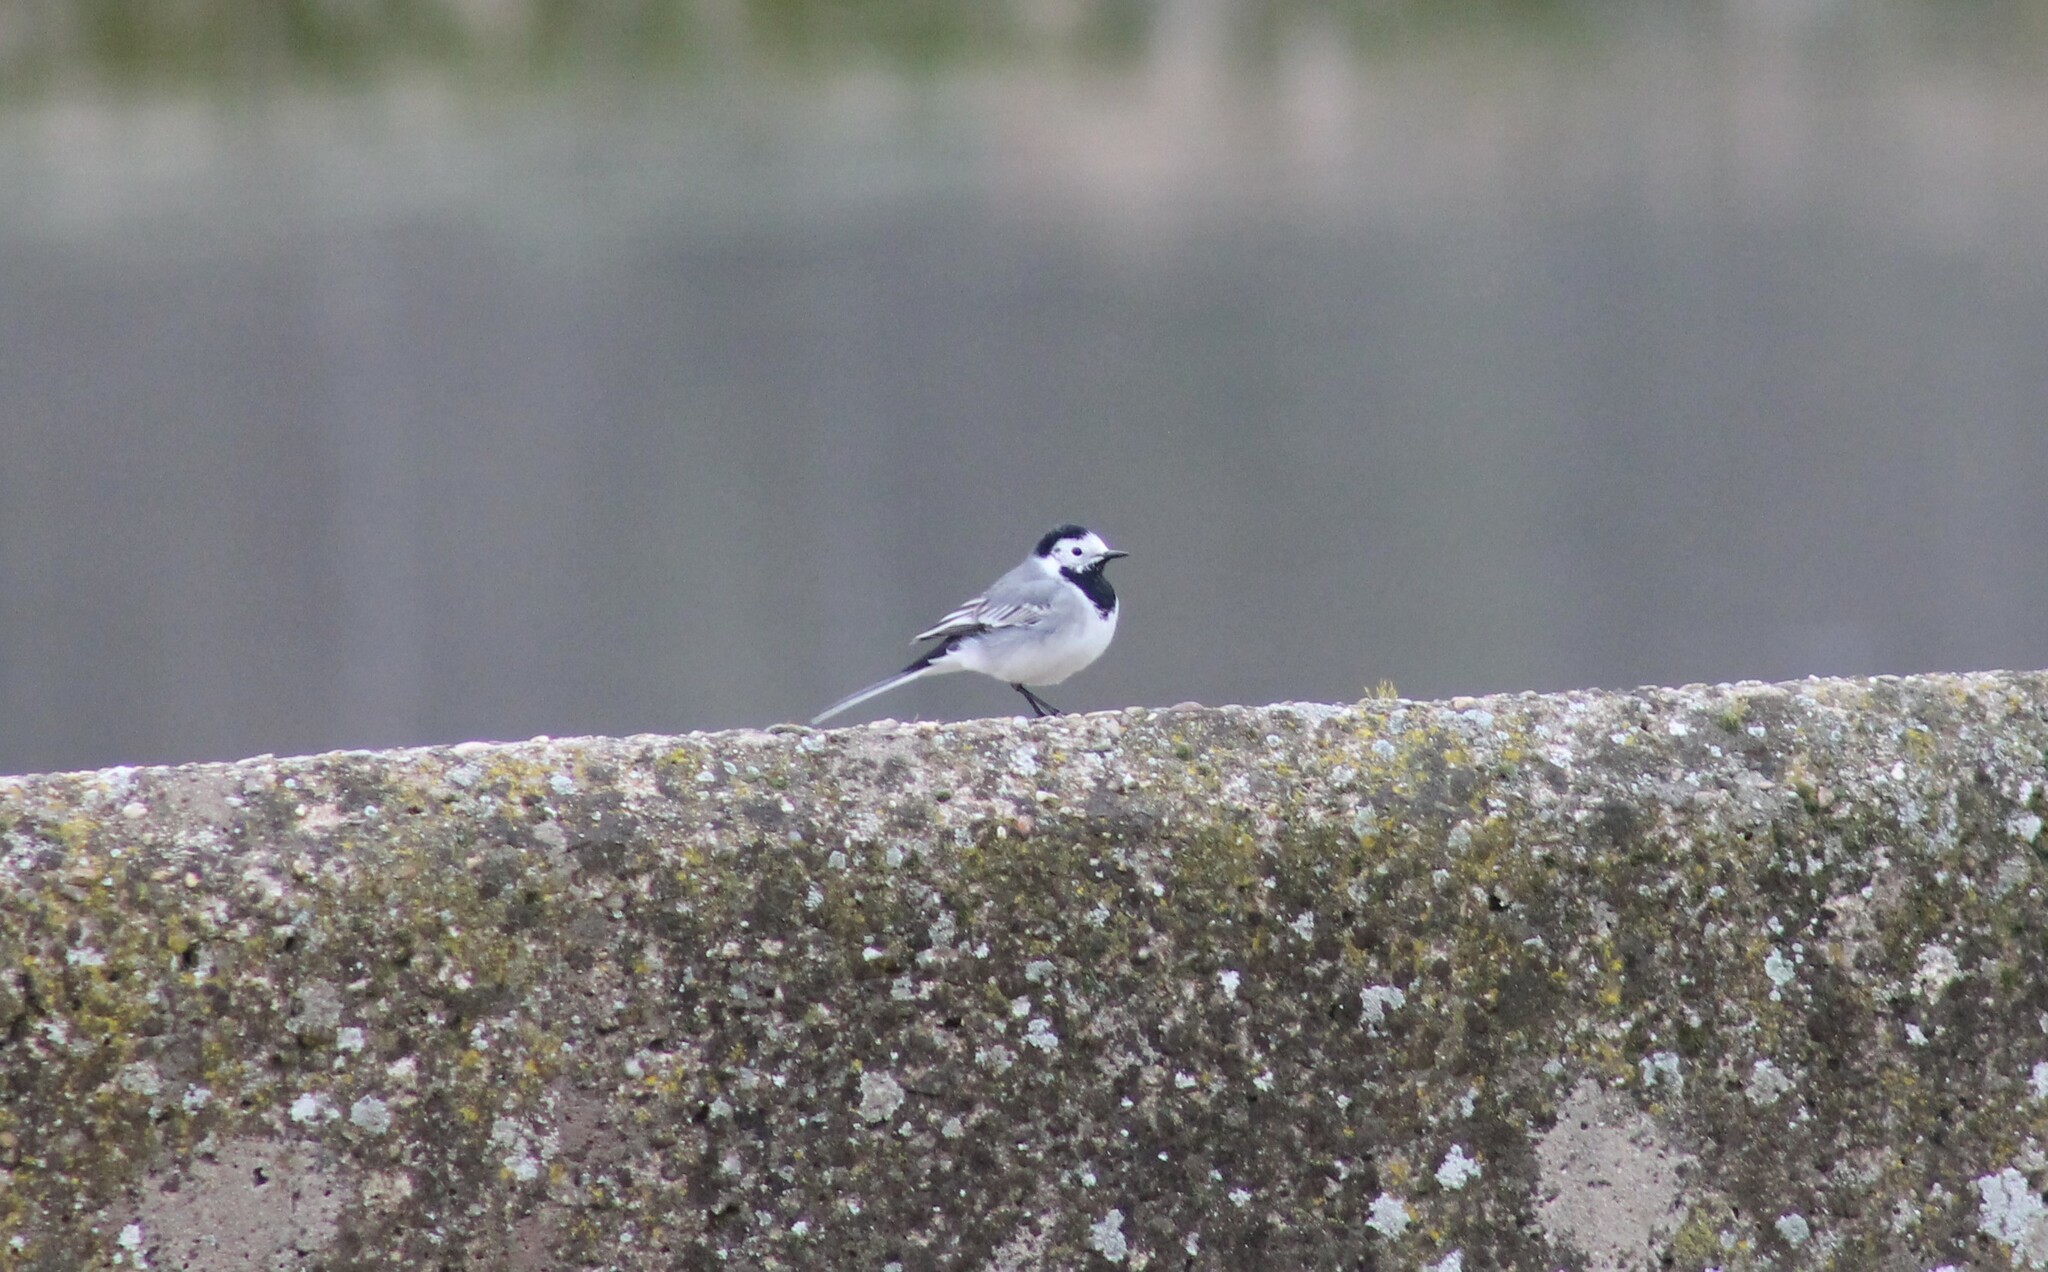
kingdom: Animalia
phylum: Chordata
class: Aves
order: Passeriformes
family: Motacillidae
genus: Motacilla
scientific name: Motacilla alba
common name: White wagtail
